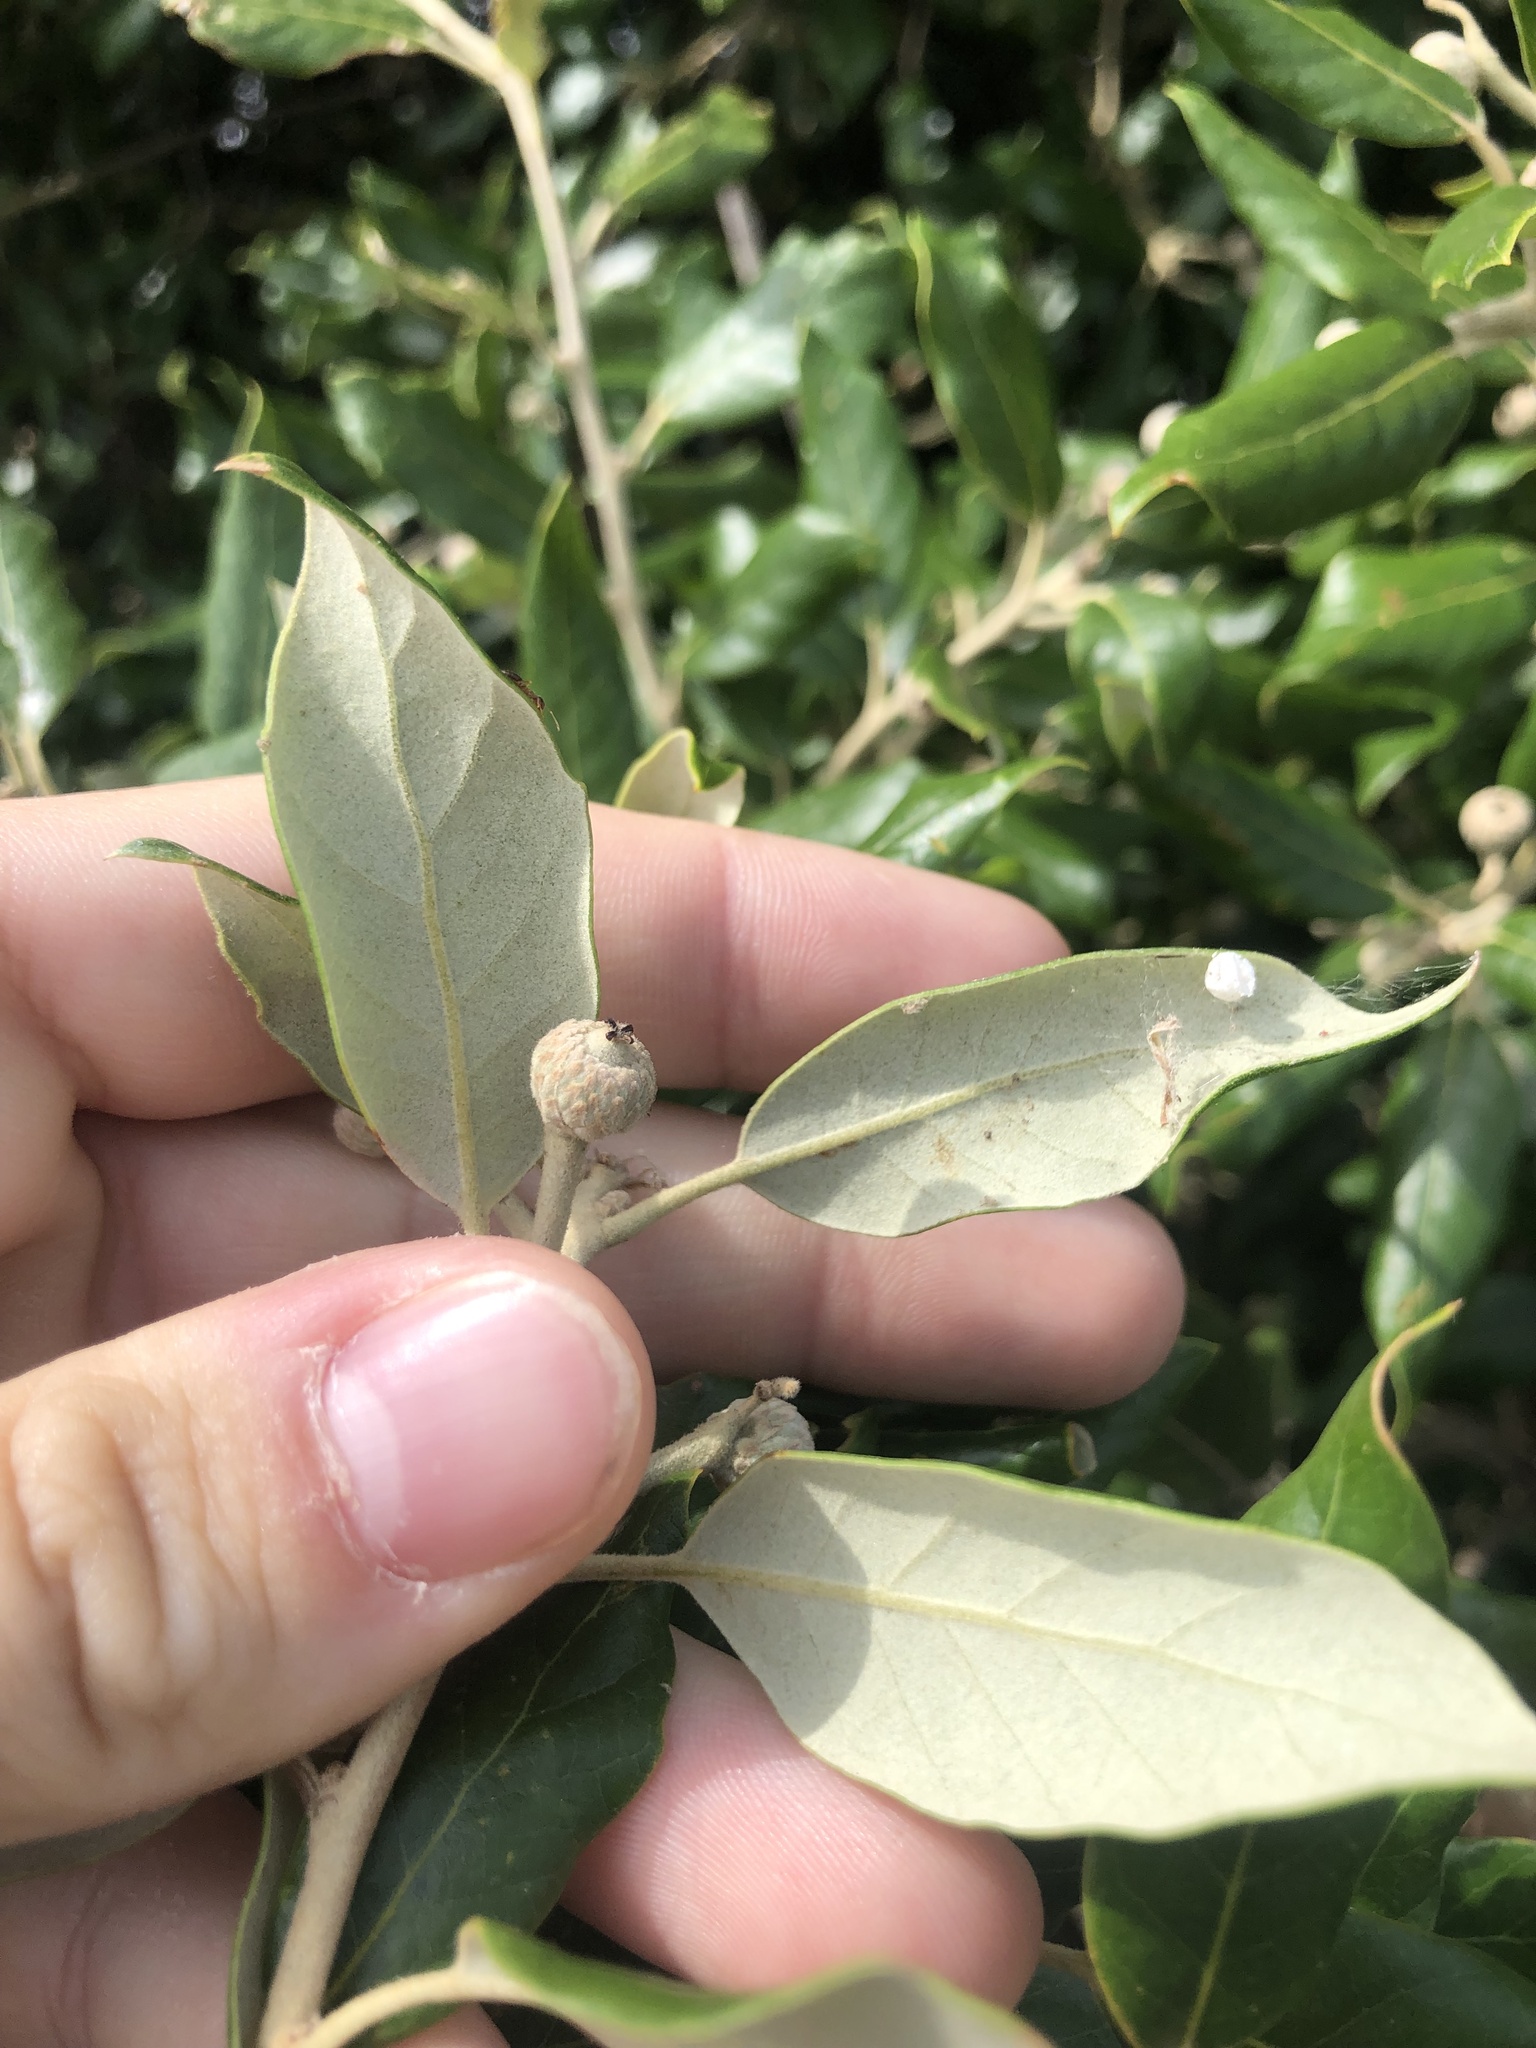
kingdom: Plantae
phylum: Tracheophyta
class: Magnoliopsida
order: Fagales
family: Fagaceae
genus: Quercus
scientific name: Quercus ilex
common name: Evergreen oak
